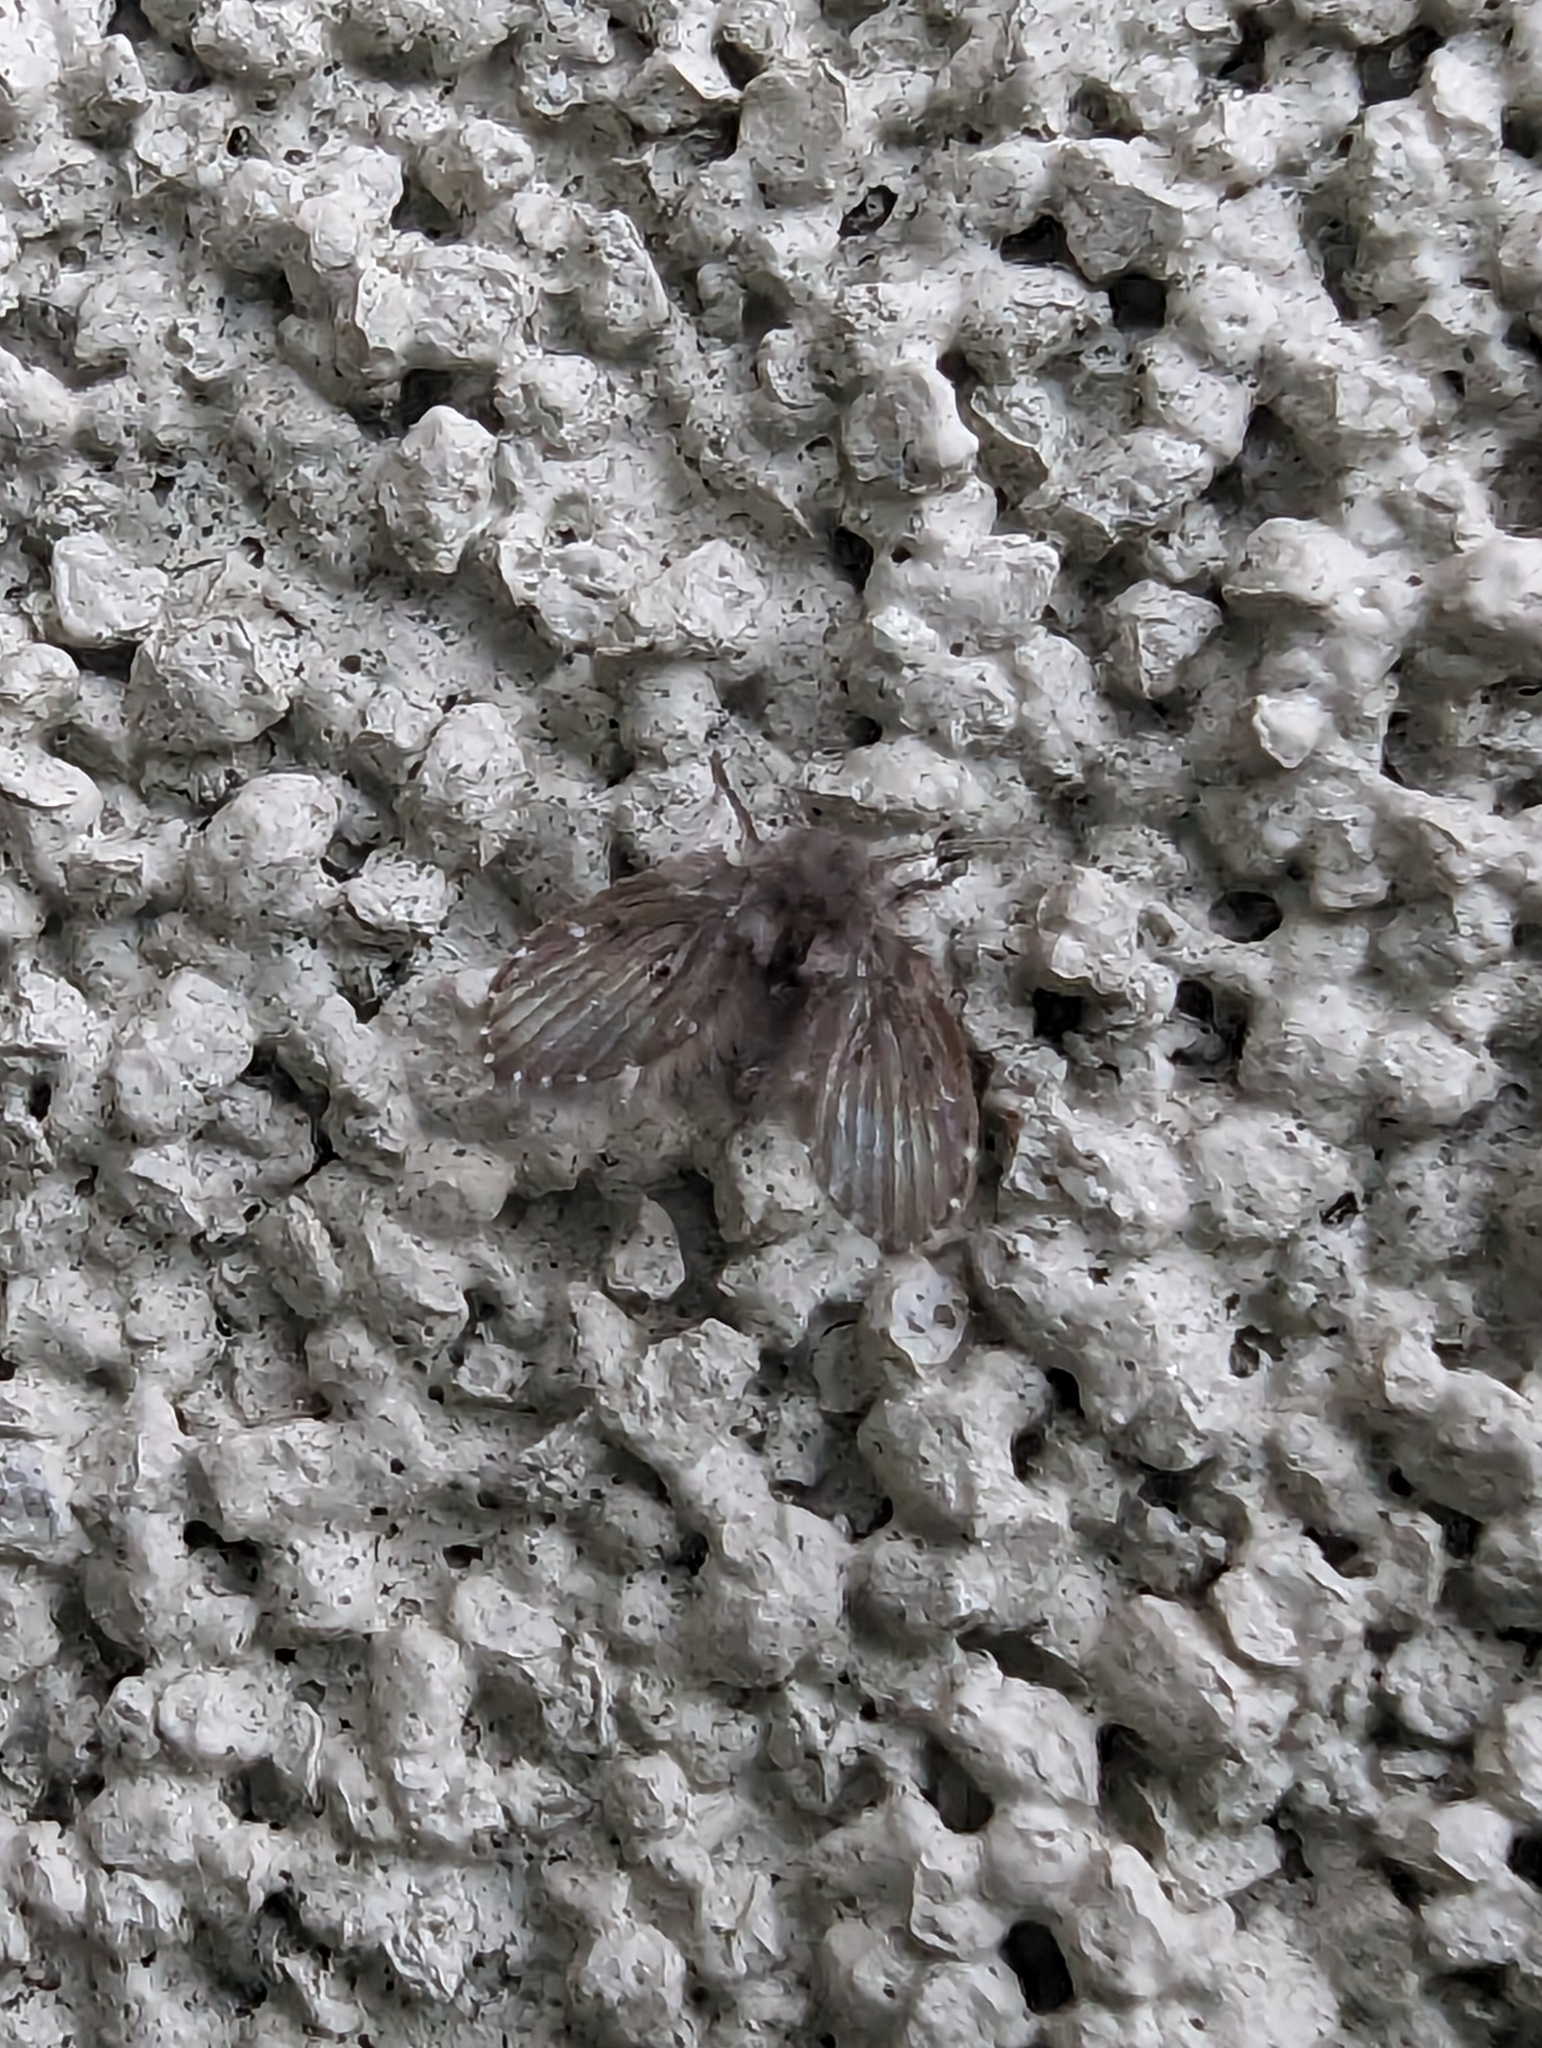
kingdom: Animalia
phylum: Arthropoda
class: Insecta
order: Diptera
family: Psychodidae
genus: Clogmia
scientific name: Clogmia albipunctatus
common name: White-spotted moth fly
